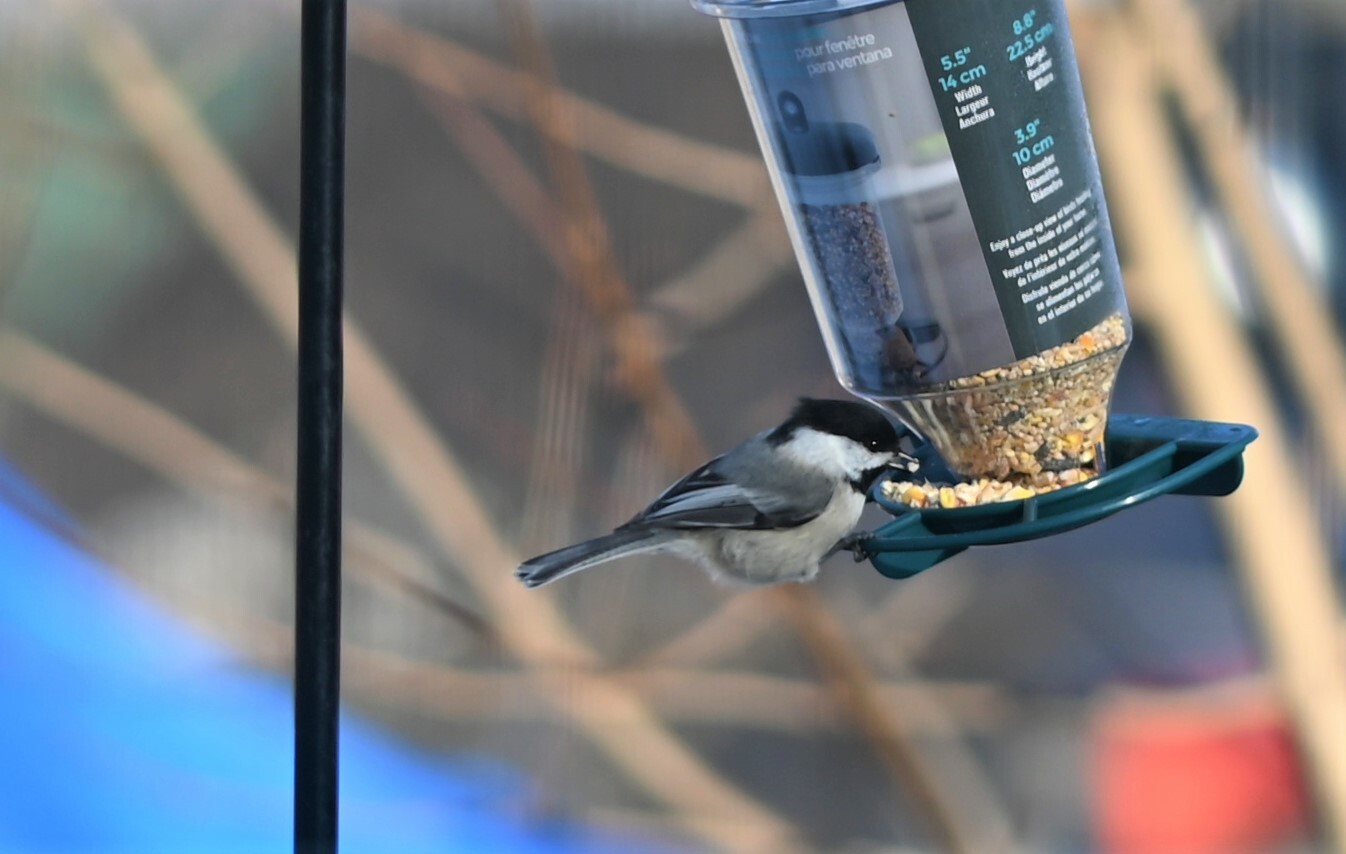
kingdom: Animalia
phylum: Chordata
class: Aves
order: Passeriformes
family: Paridae
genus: Poecile
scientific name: Poecile atricapillus
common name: Black-capped chickadee
